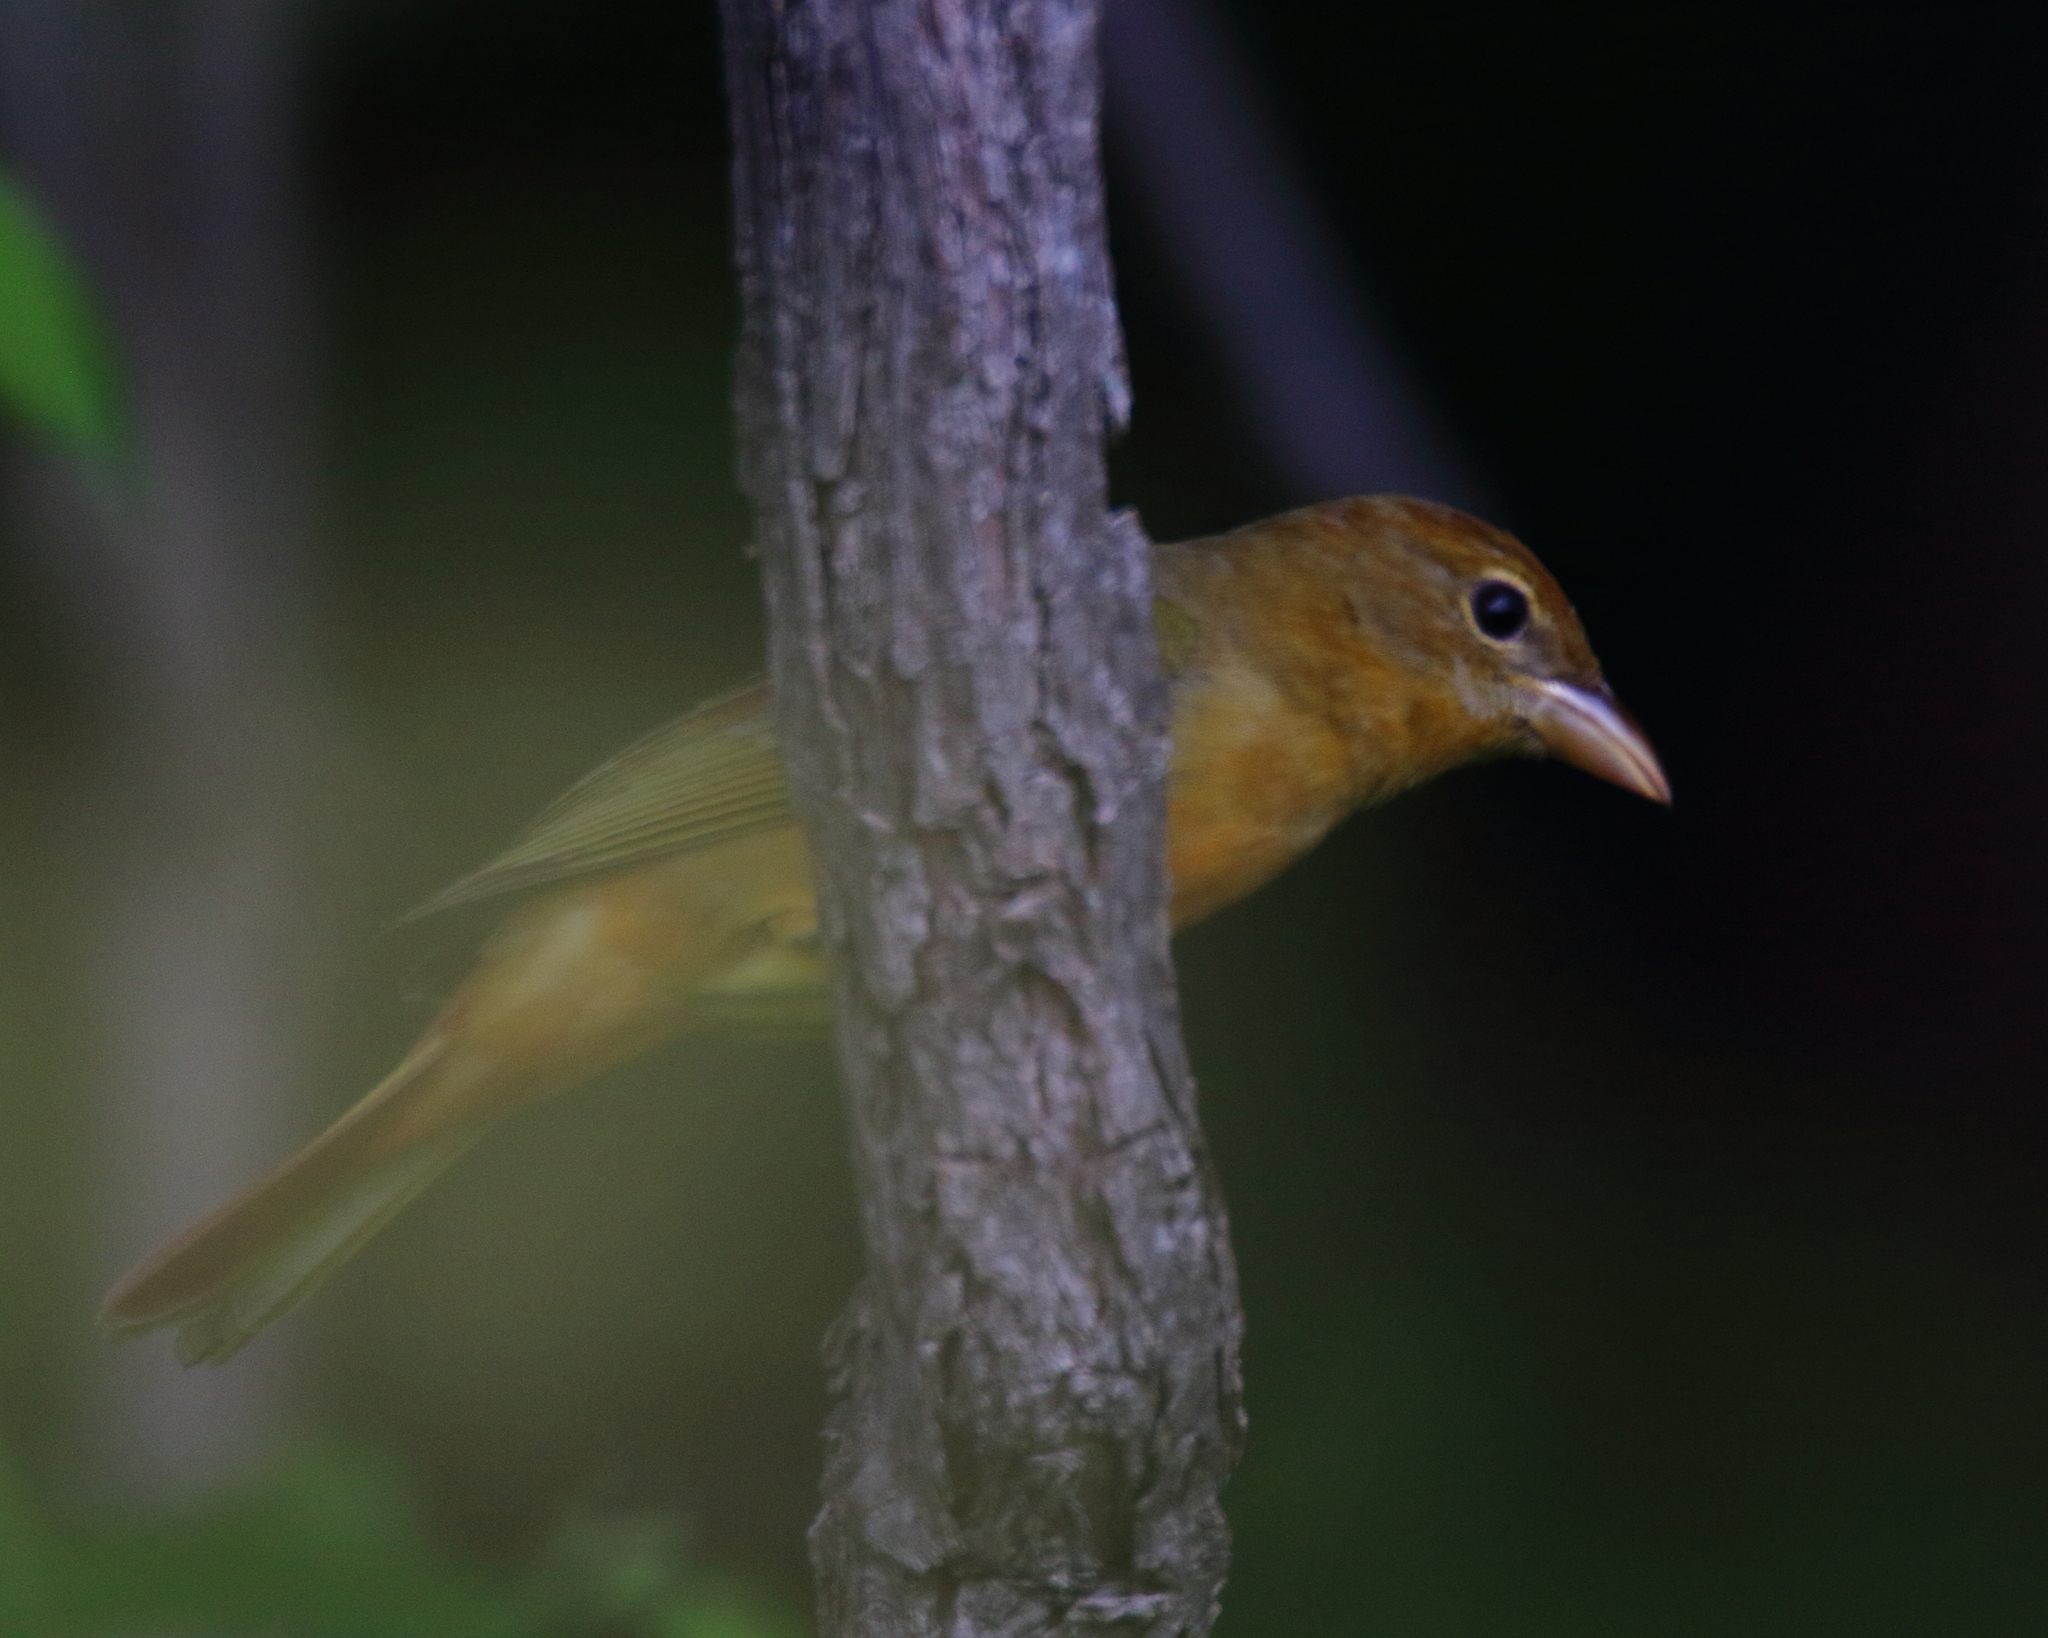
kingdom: Animalia
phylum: Chordata
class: Aves
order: Passeriformes
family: Cardinalidae
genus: Piranga
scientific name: Piranga rubra
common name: Summer tanager
